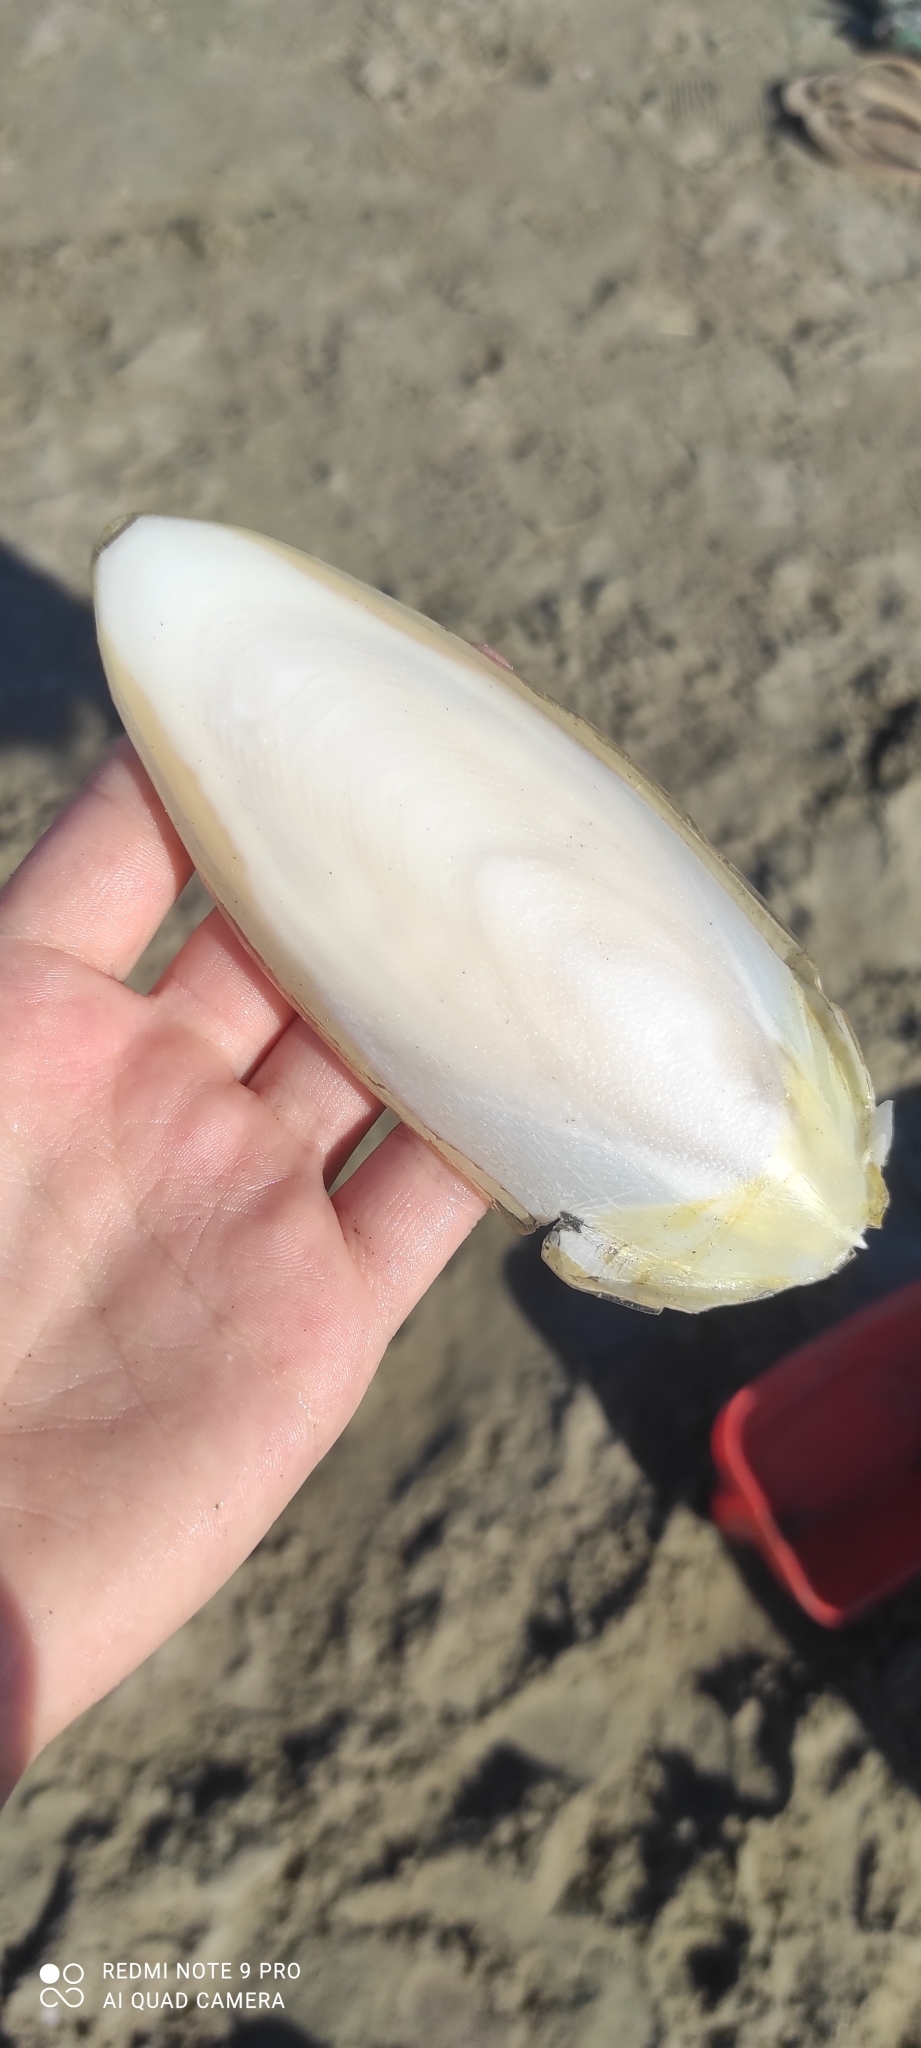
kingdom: Animalia
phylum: Mollusca
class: Cephalopoda
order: Sepiida
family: Sepiidae
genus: Sepia
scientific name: Sepia officinalis
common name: Common cuttlefish
